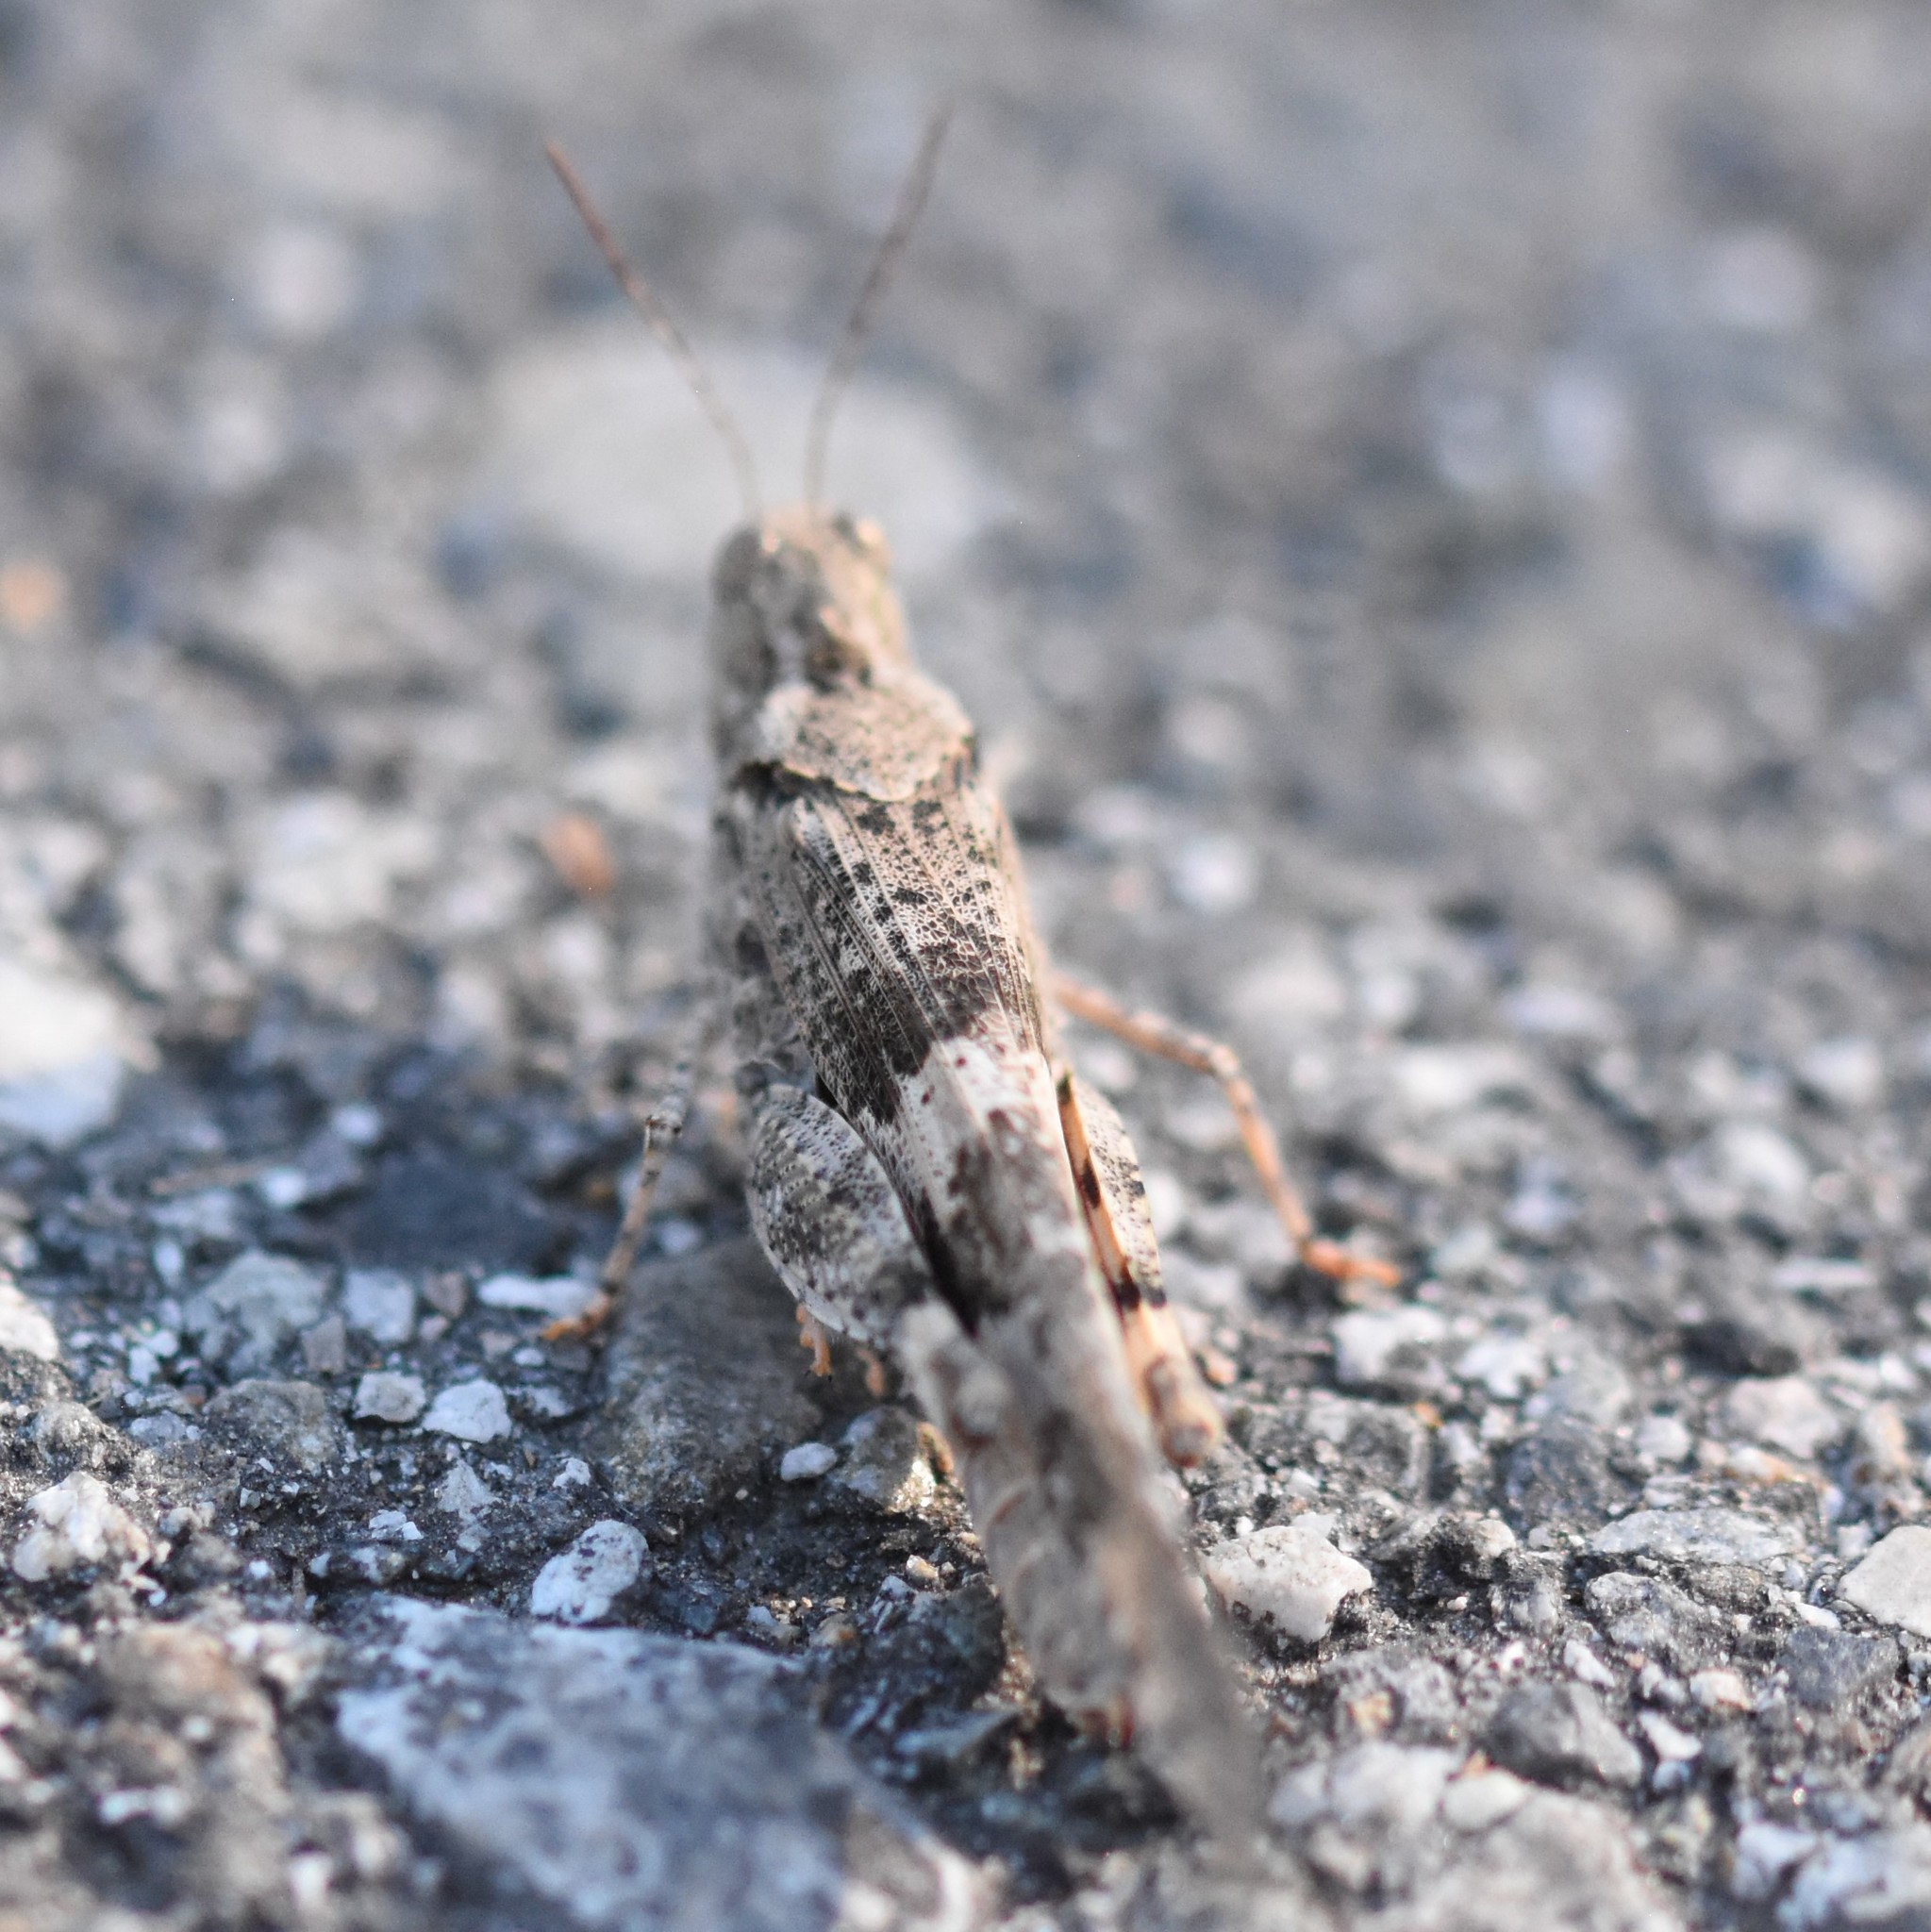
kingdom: Animalia
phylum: Arthropoda
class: Insecta
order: Orthoptera
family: Acrididae
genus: Trimerotropis
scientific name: Trimerotropis pallidipennis
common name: Pallid-winged grasshopper
